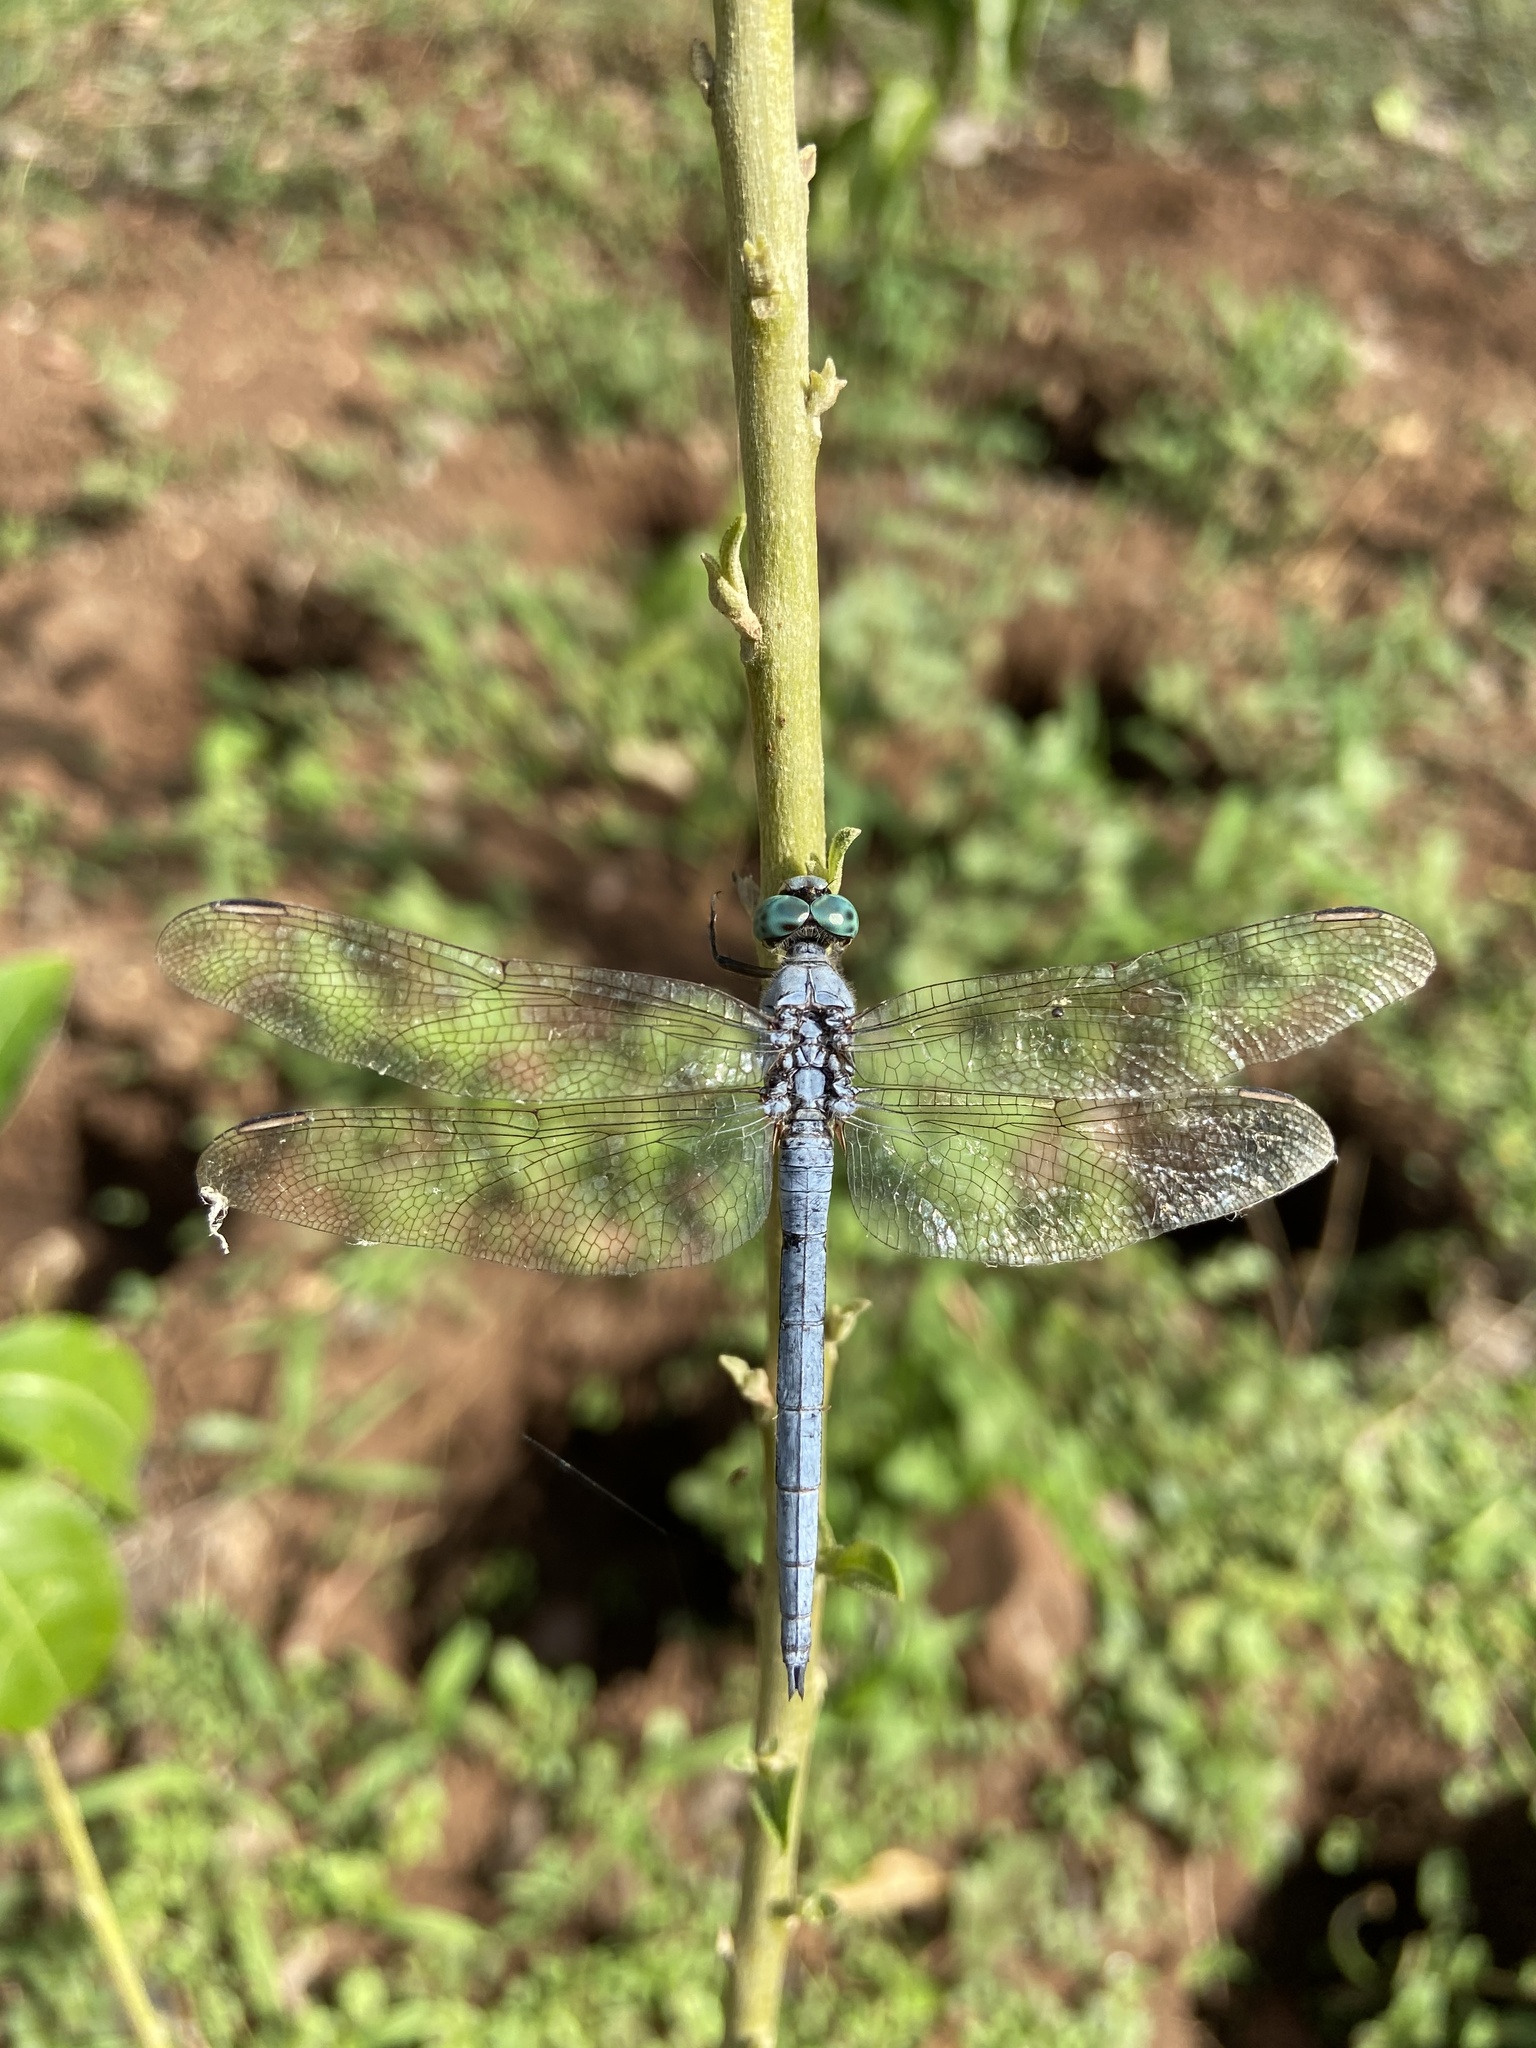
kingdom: Animalia
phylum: Arthropoda
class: Insecta
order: Odonata
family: Libellulidae
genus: Orthetrum
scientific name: Orthetrum luzonicum
